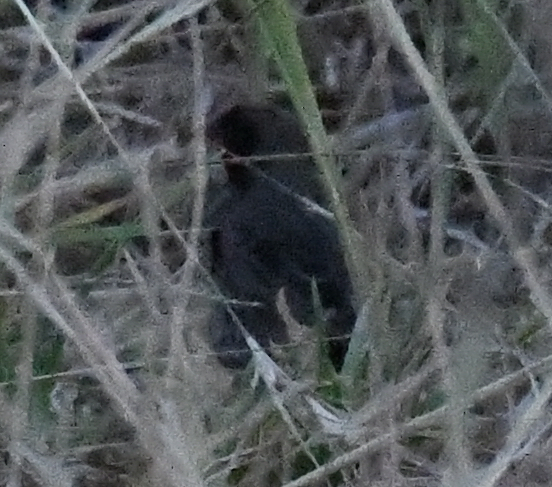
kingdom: Animalia
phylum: Chordata
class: Aves
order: Passeriformes
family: Estrildidae
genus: Ortygospiza
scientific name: Ortygospiza atricollis
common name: Quailfinch
